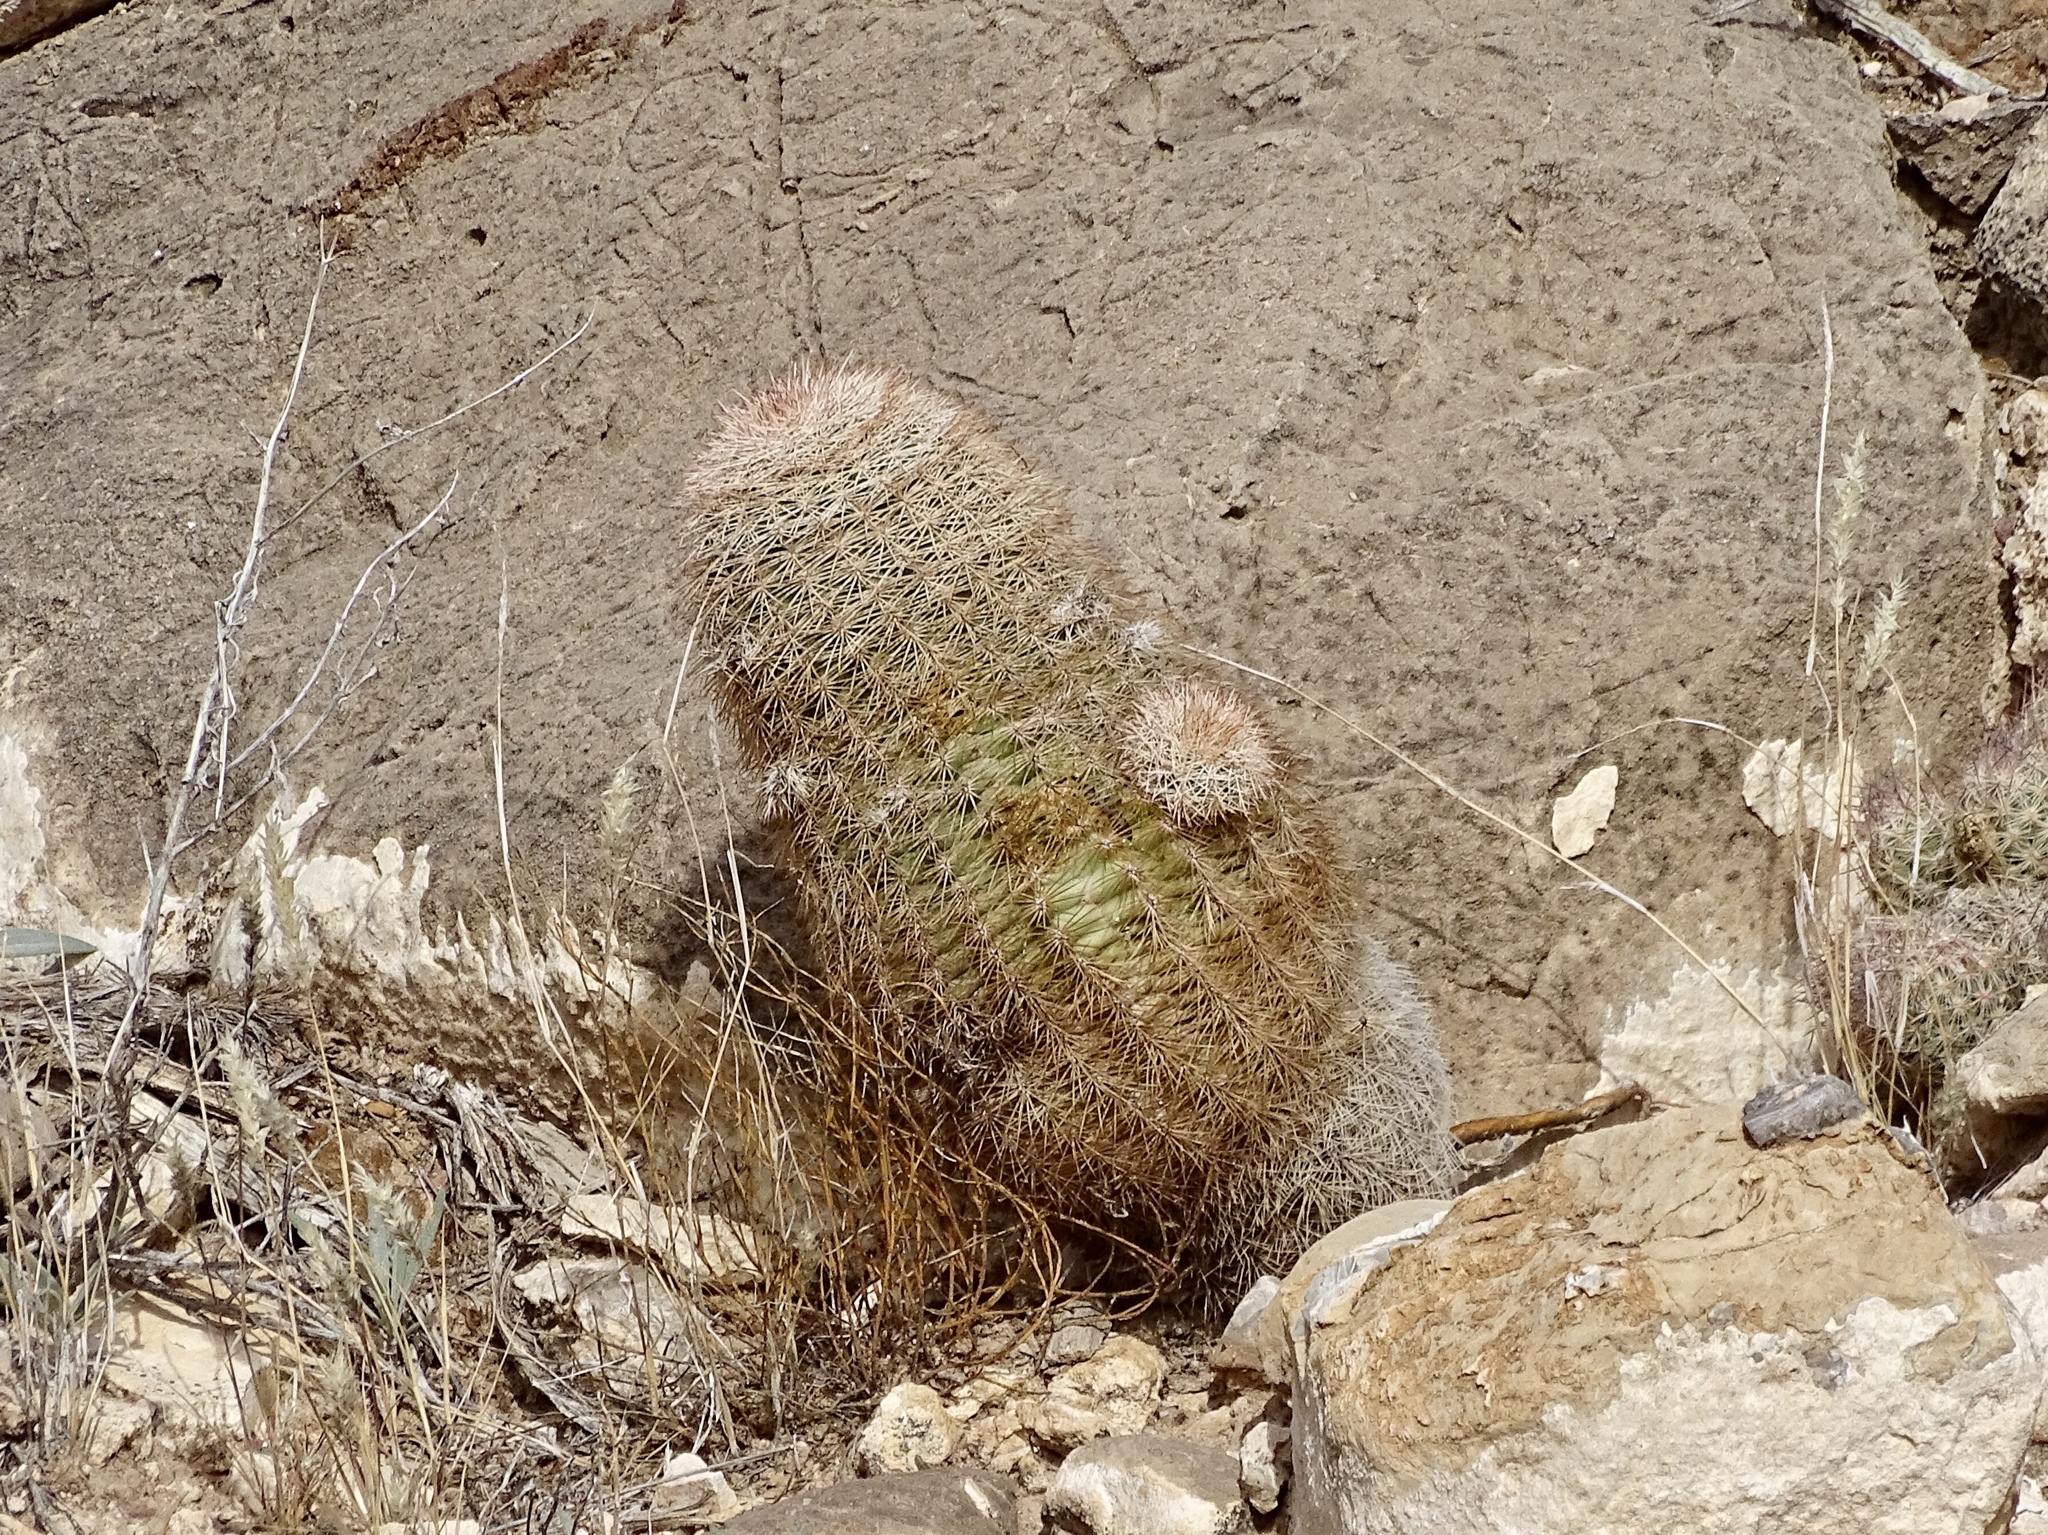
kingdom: Plantae
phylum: Tracheophyta
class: Magnoliopsida
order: Caryophyllales
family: Cactaceae
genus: Echinocereus
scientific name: Echinocereus dasyacanthus
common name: Spiny hedgehog cactus
